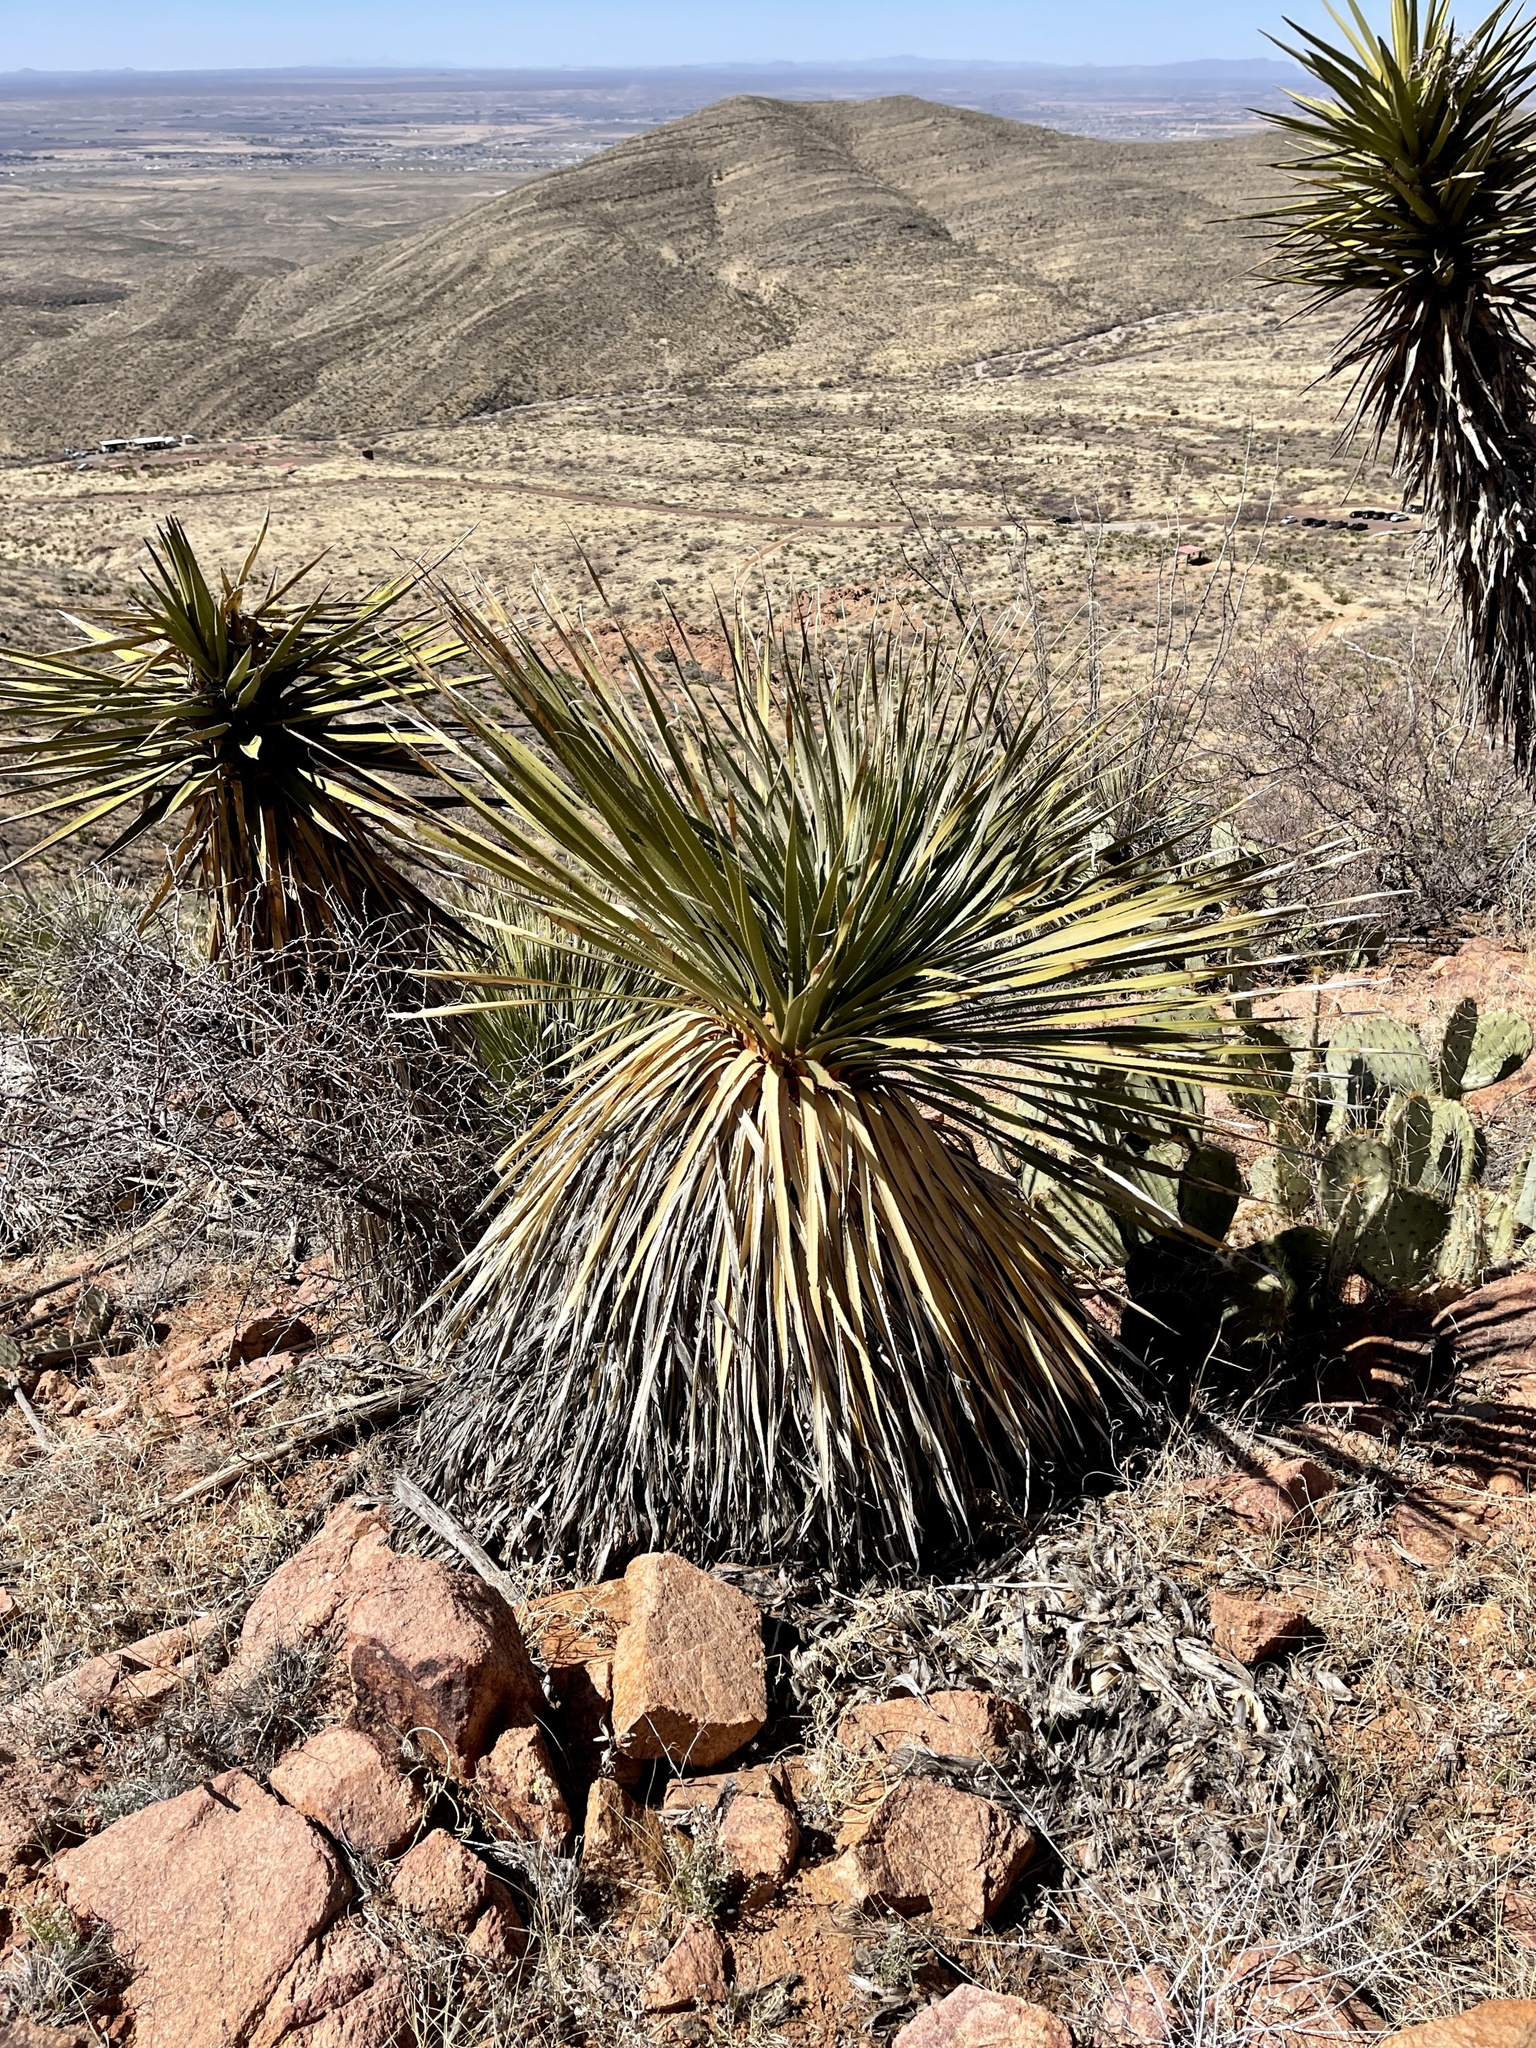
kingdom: Plantae
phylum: Tracheophyta
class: Liliopsida
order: Asparagales
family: Asparagaceae
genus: Dasylirion
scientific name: Dasylirion wheeleri
